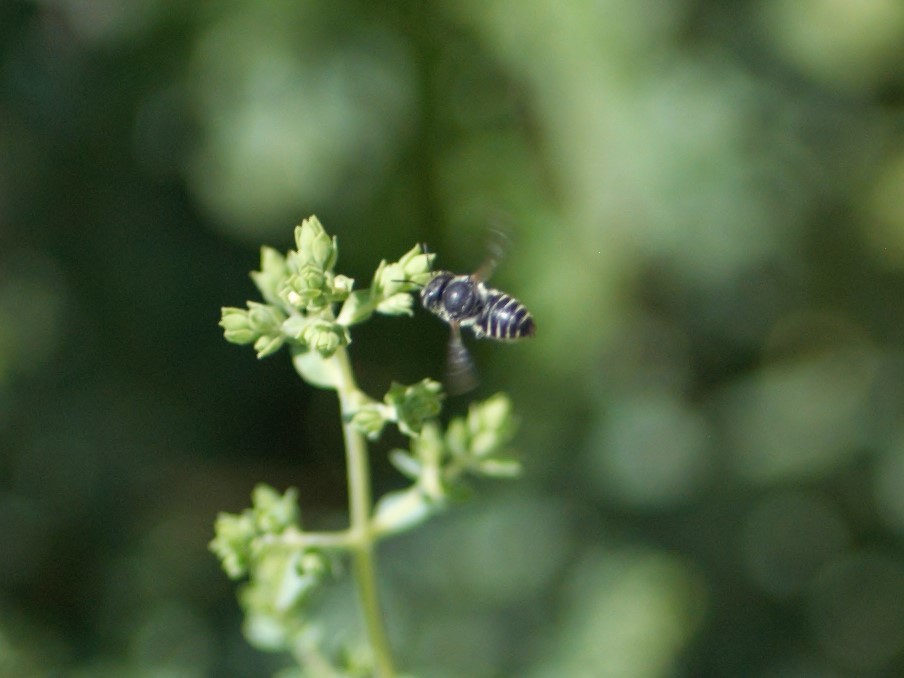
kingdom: Animalia
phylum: Arthropoda
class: Insecta
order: Hymenoptera
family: Megachilidae
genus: Megachile
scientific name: Megachile
